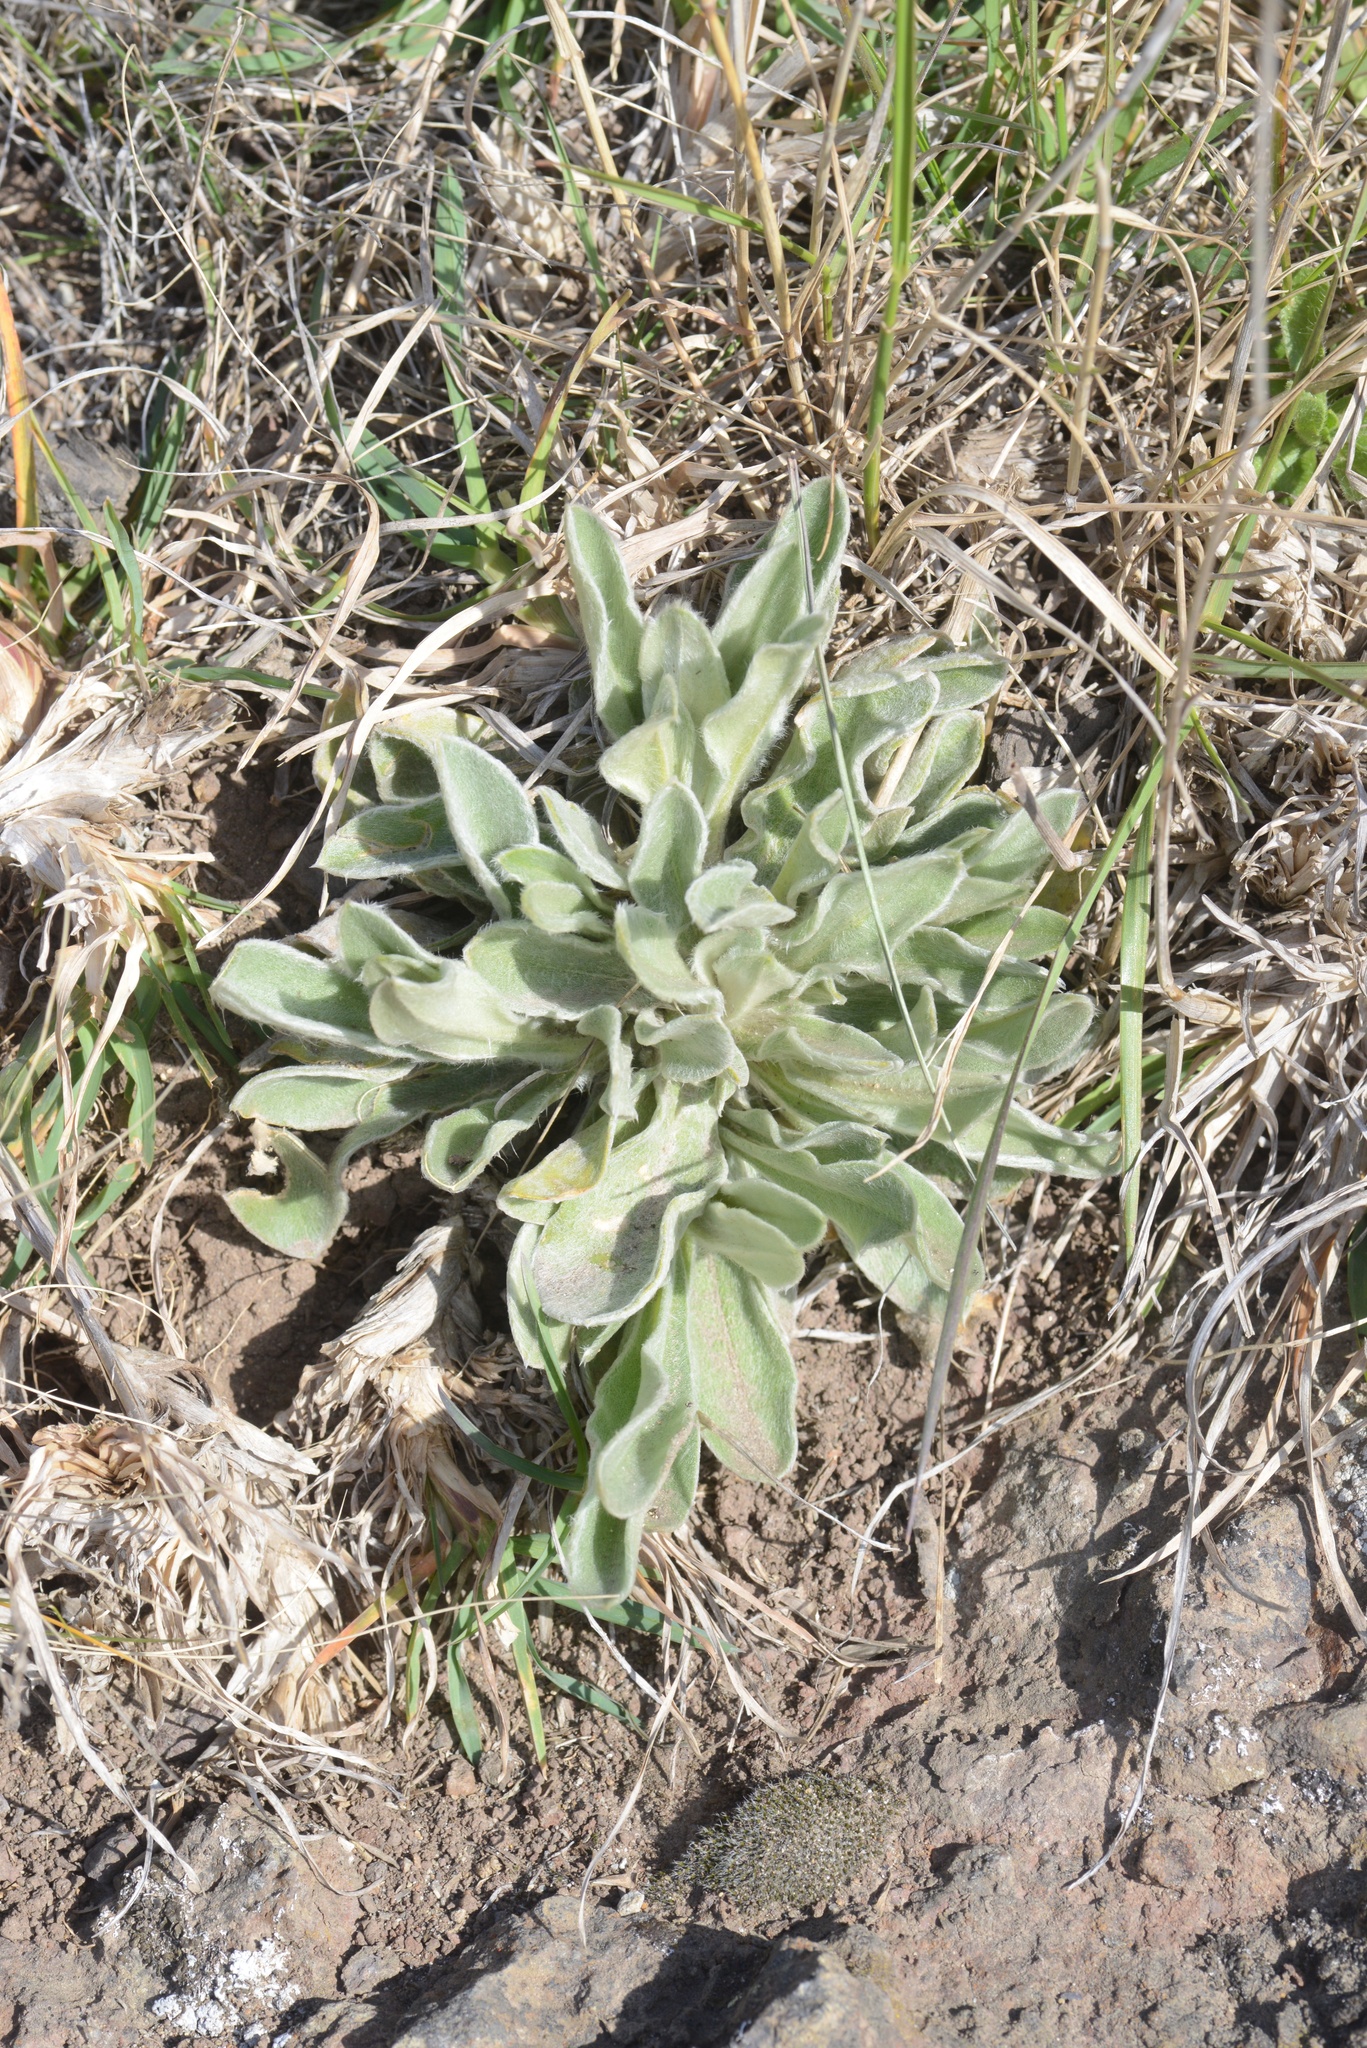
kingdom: Plantae
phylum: Tracheophyta
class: Magnoliopsida
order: Brassicales
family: Brassicaceae
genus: Matthiola
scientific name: Matthiola incana
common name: Hoary stock
